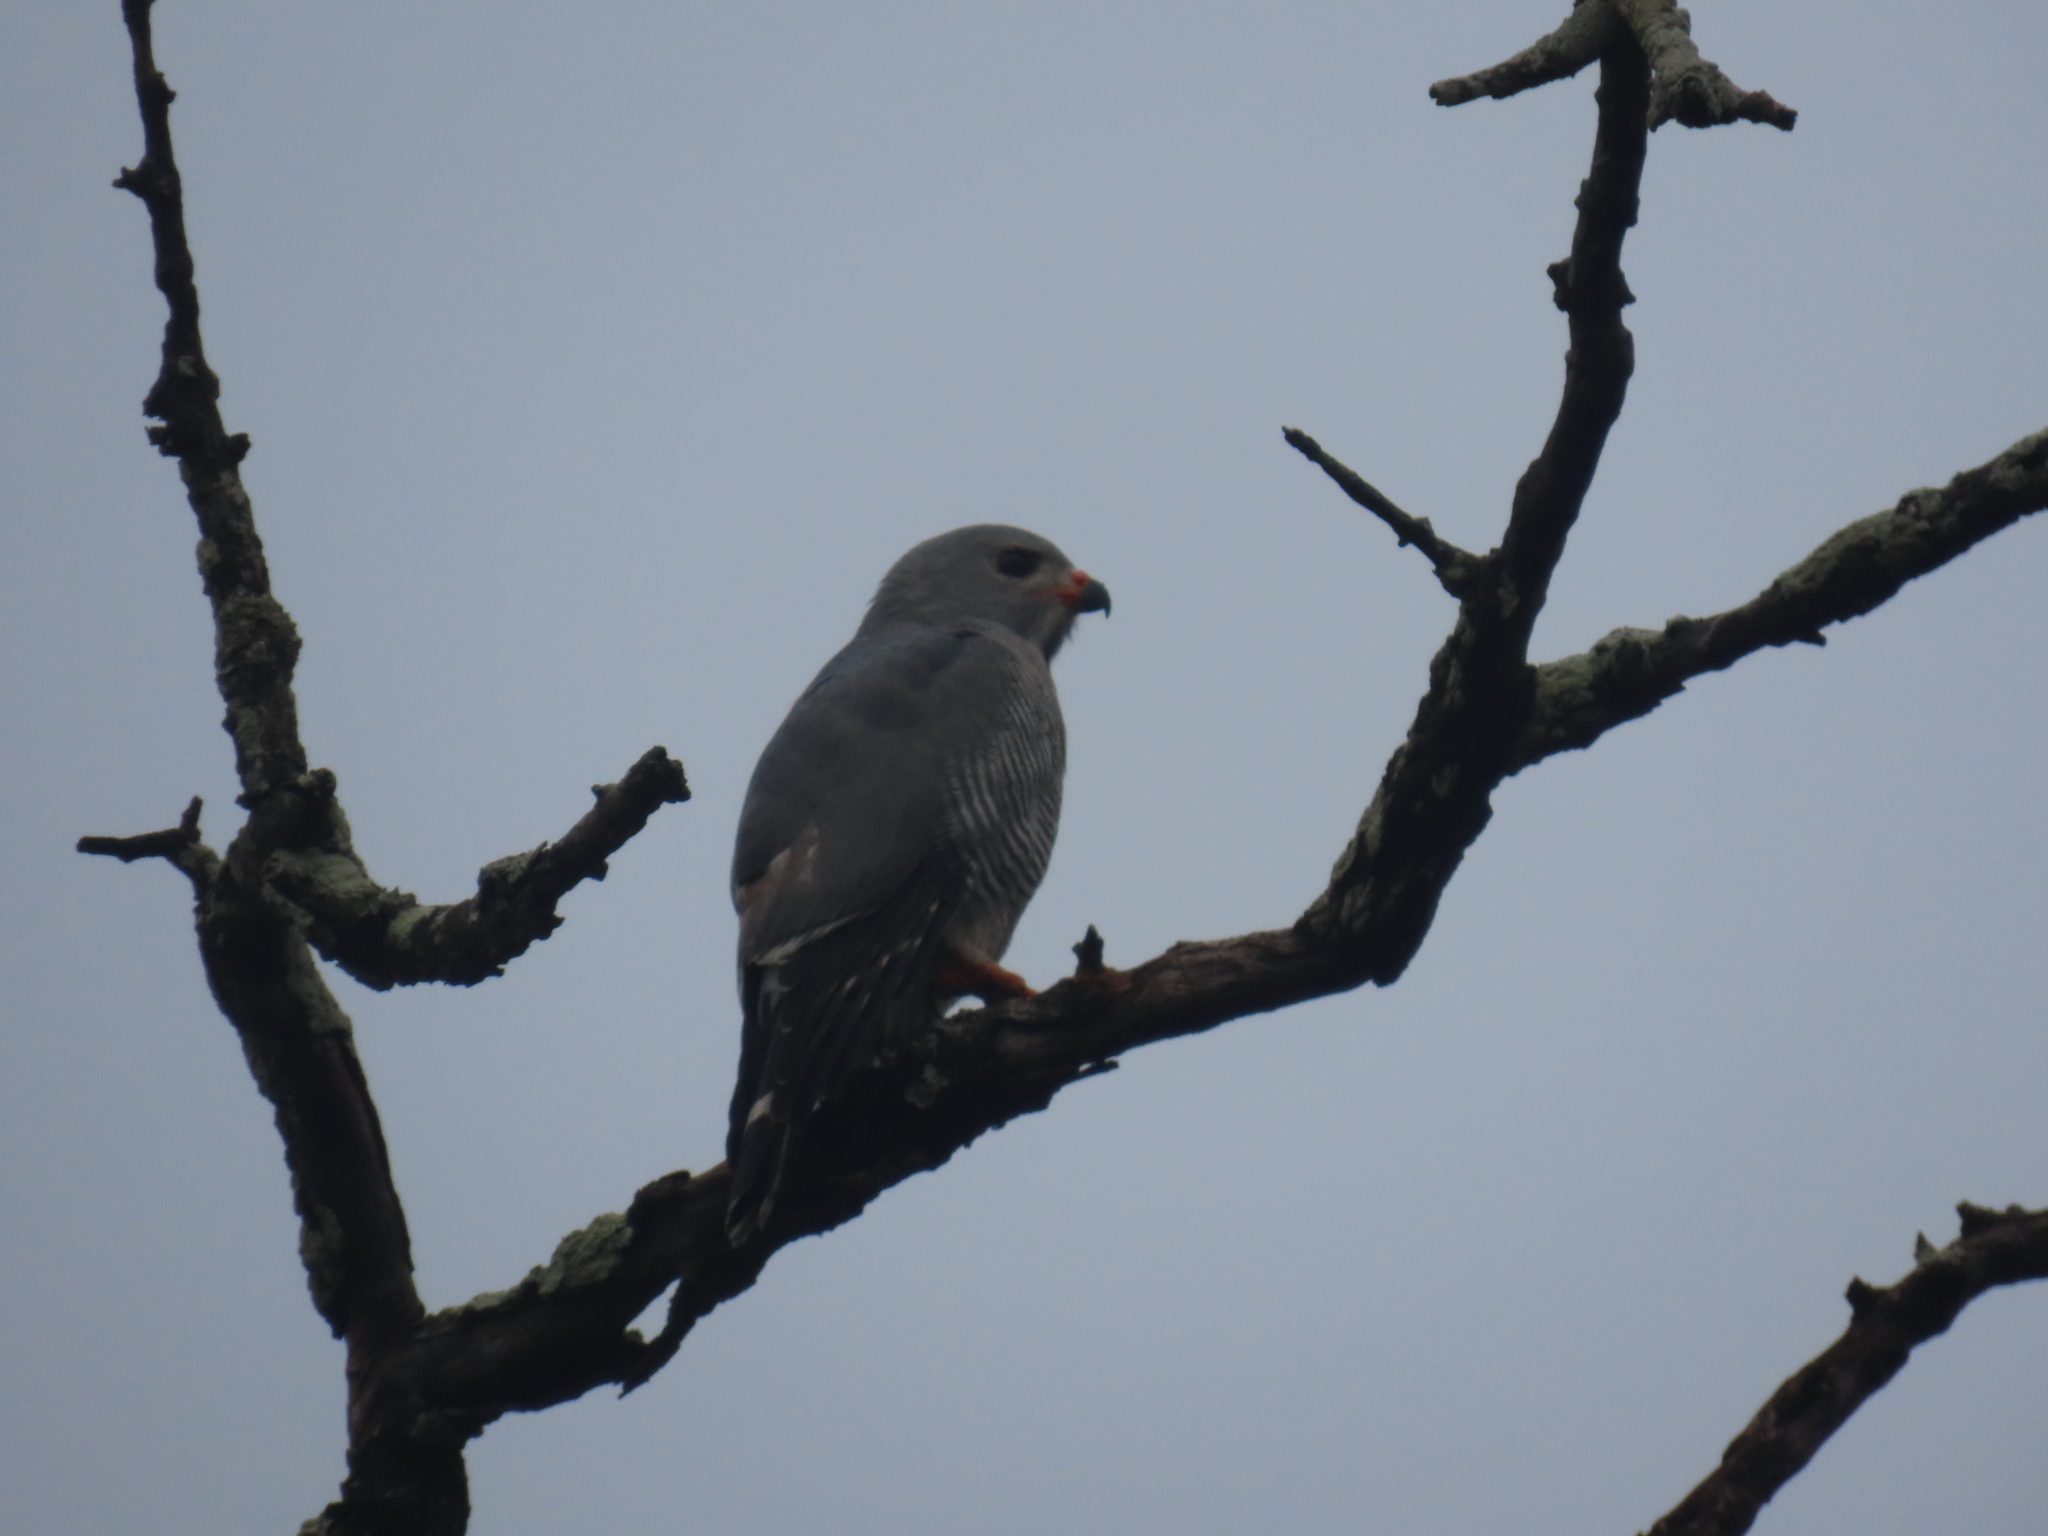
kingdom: Animalia
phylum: Chordata
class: Aves
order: Accipitriformes
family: Accipitridae
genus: Kaupifalco
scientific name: Kaupifalco monogrammicus
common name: Lizard buzzard
